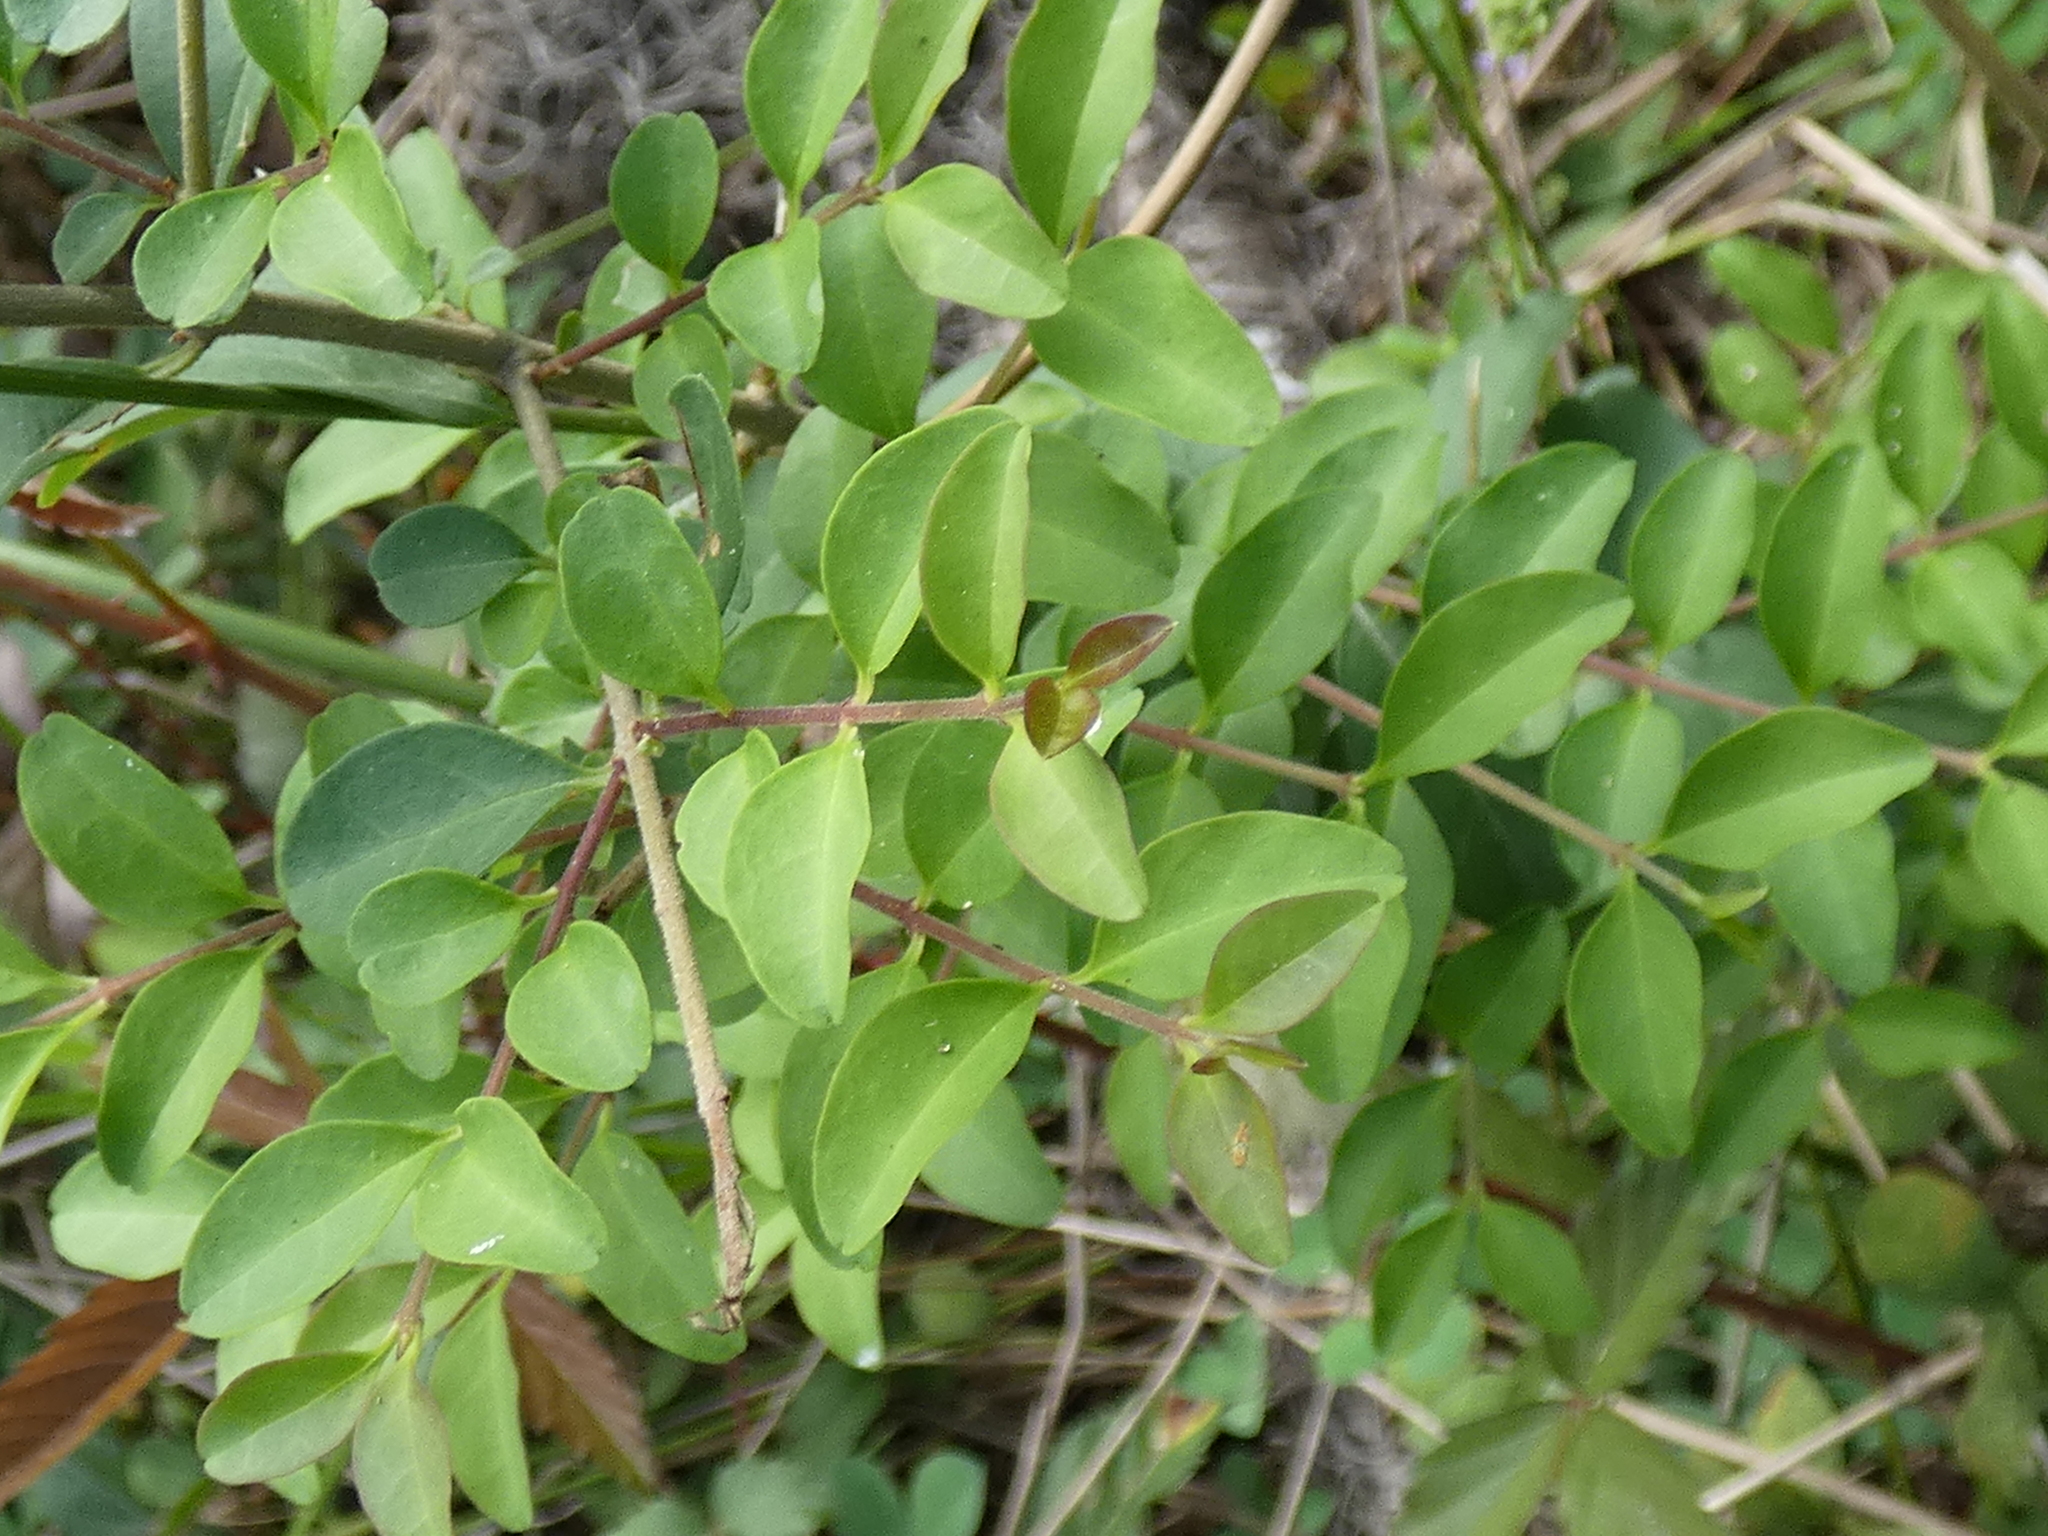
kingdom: Plantae
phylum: Tracheophyta
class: Magnoliopsida
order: Lamiales
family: Oleaceae
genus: Ligustrum
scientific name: Ligustrum sinense
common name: Chinese privet
